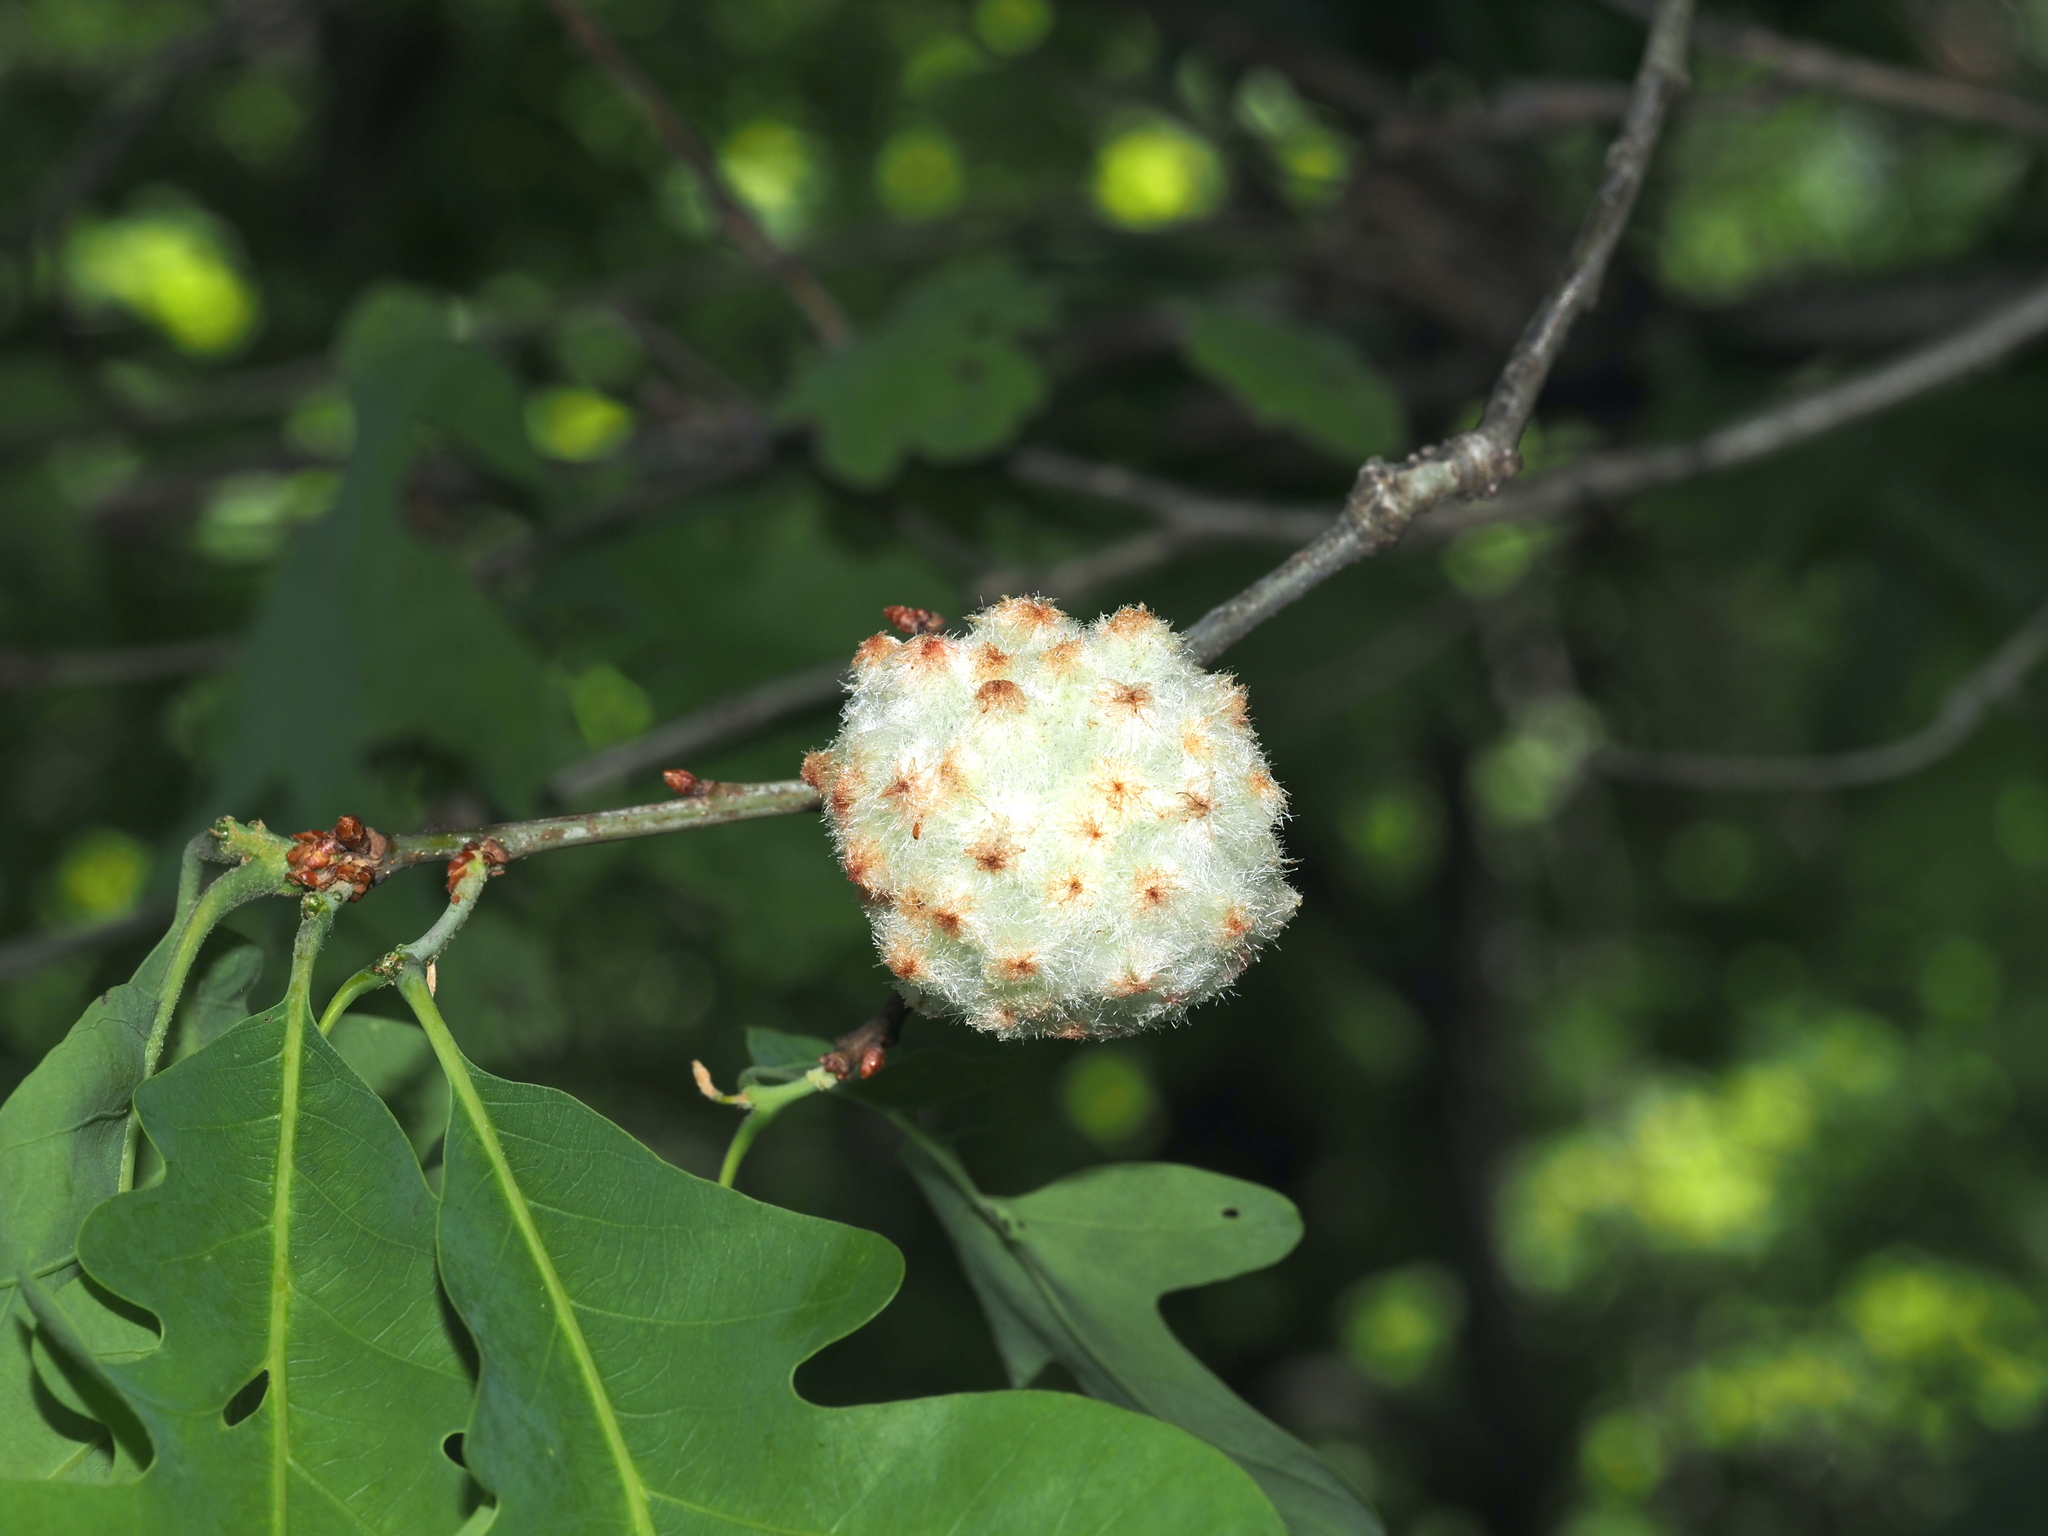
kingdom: Animalia
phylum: Arthropoda
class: Insecta
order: Hymenoptera
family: Cynipidae
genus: Callirhytis
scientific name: Callirhytis
